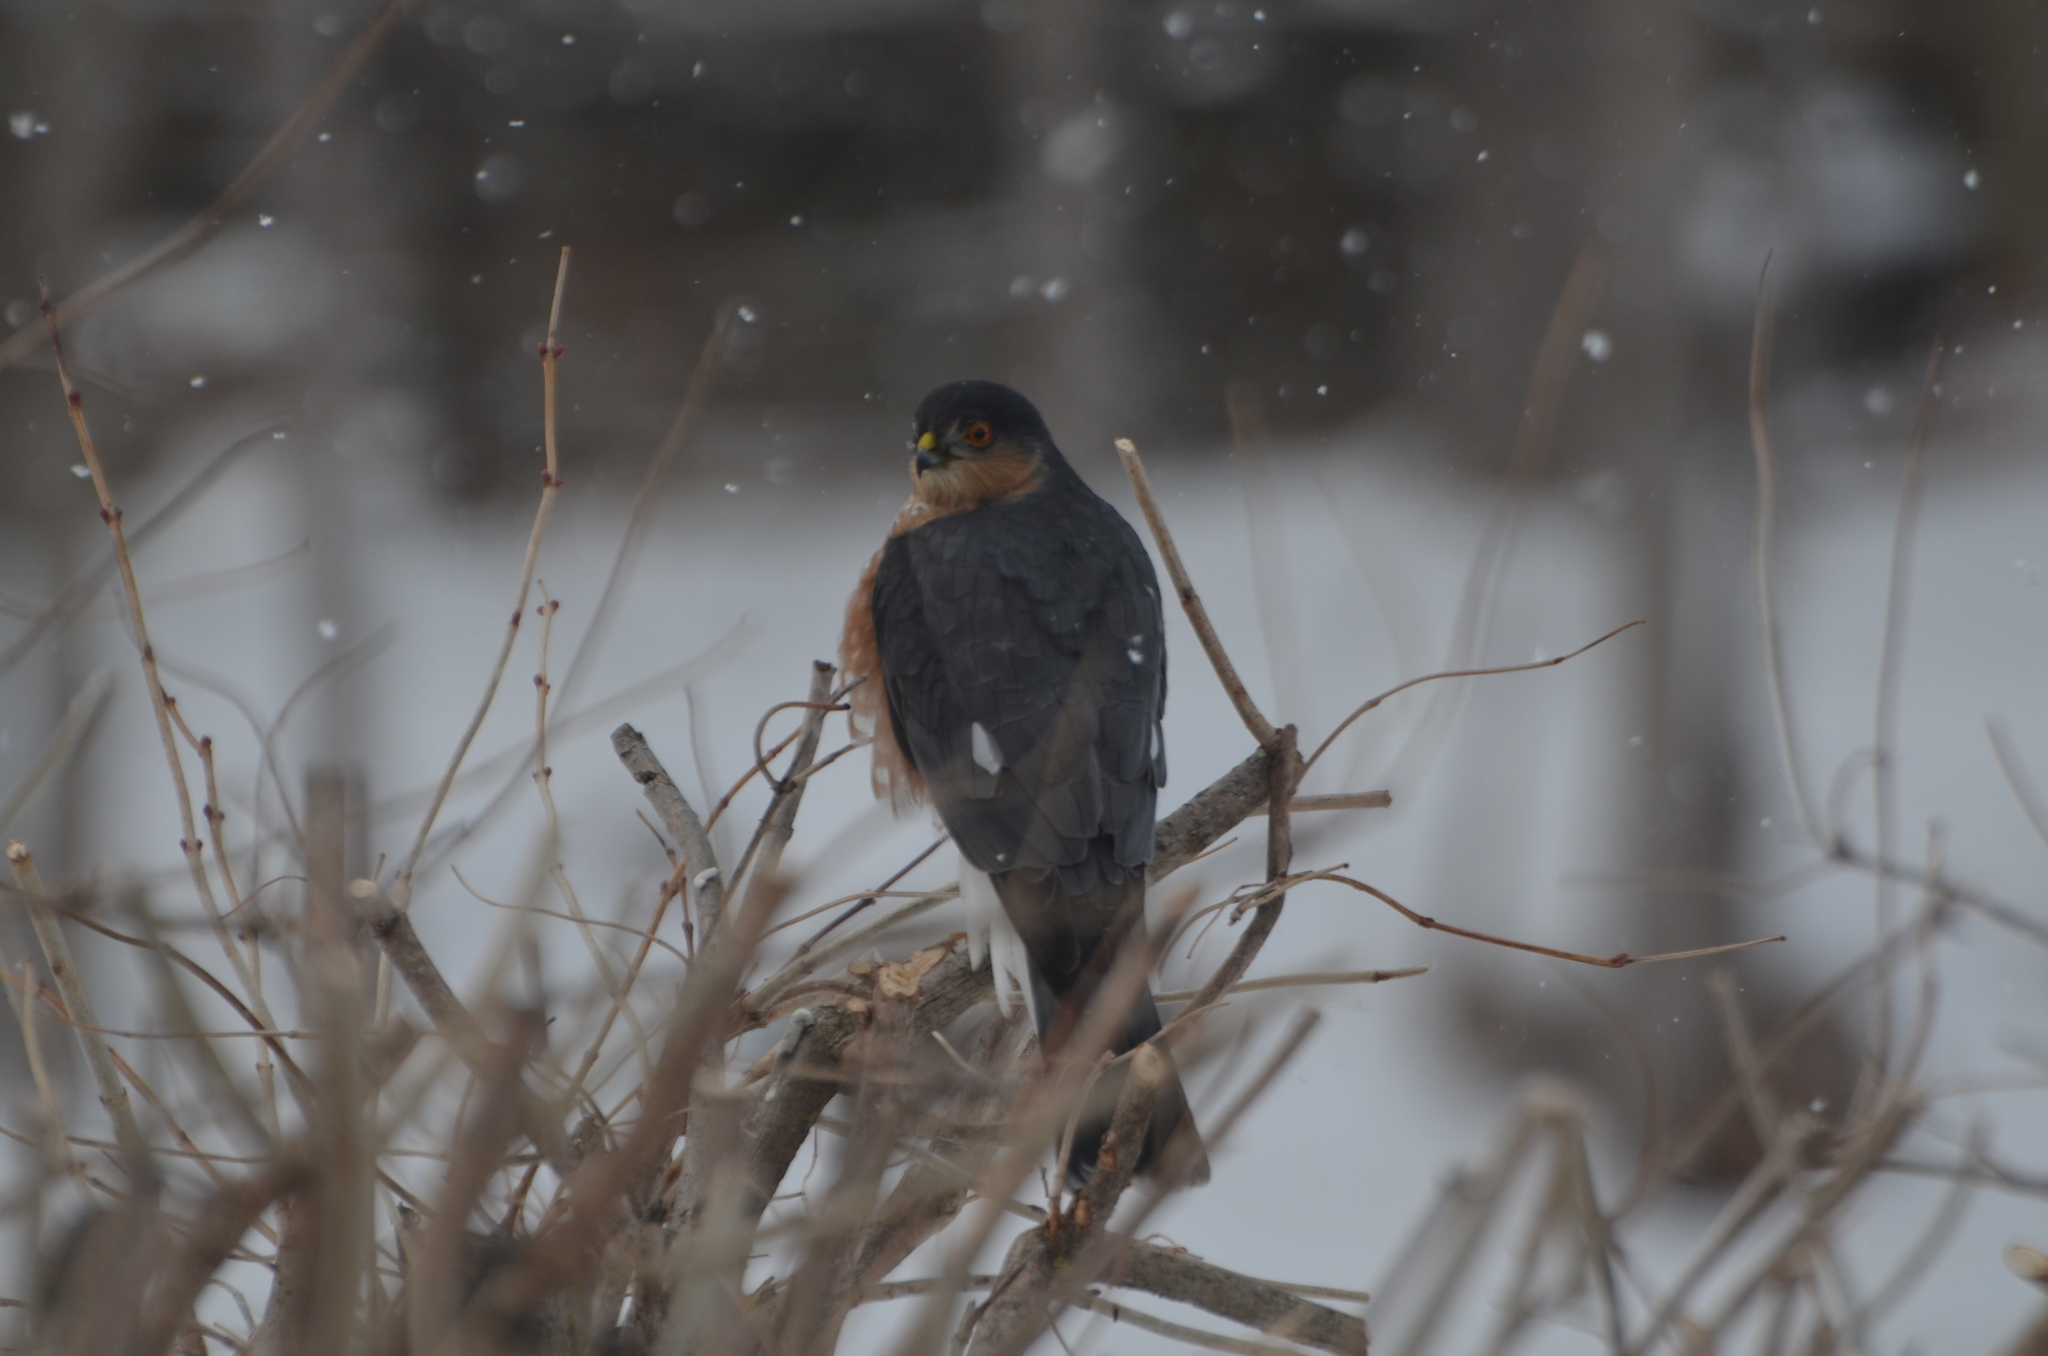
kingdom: Animalia
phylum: Chordata
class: Aves
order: Accipitriformes
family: Accipitridae
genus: Accipiter
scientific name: Accipiter striatus
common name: Sharp-shinned hawk
